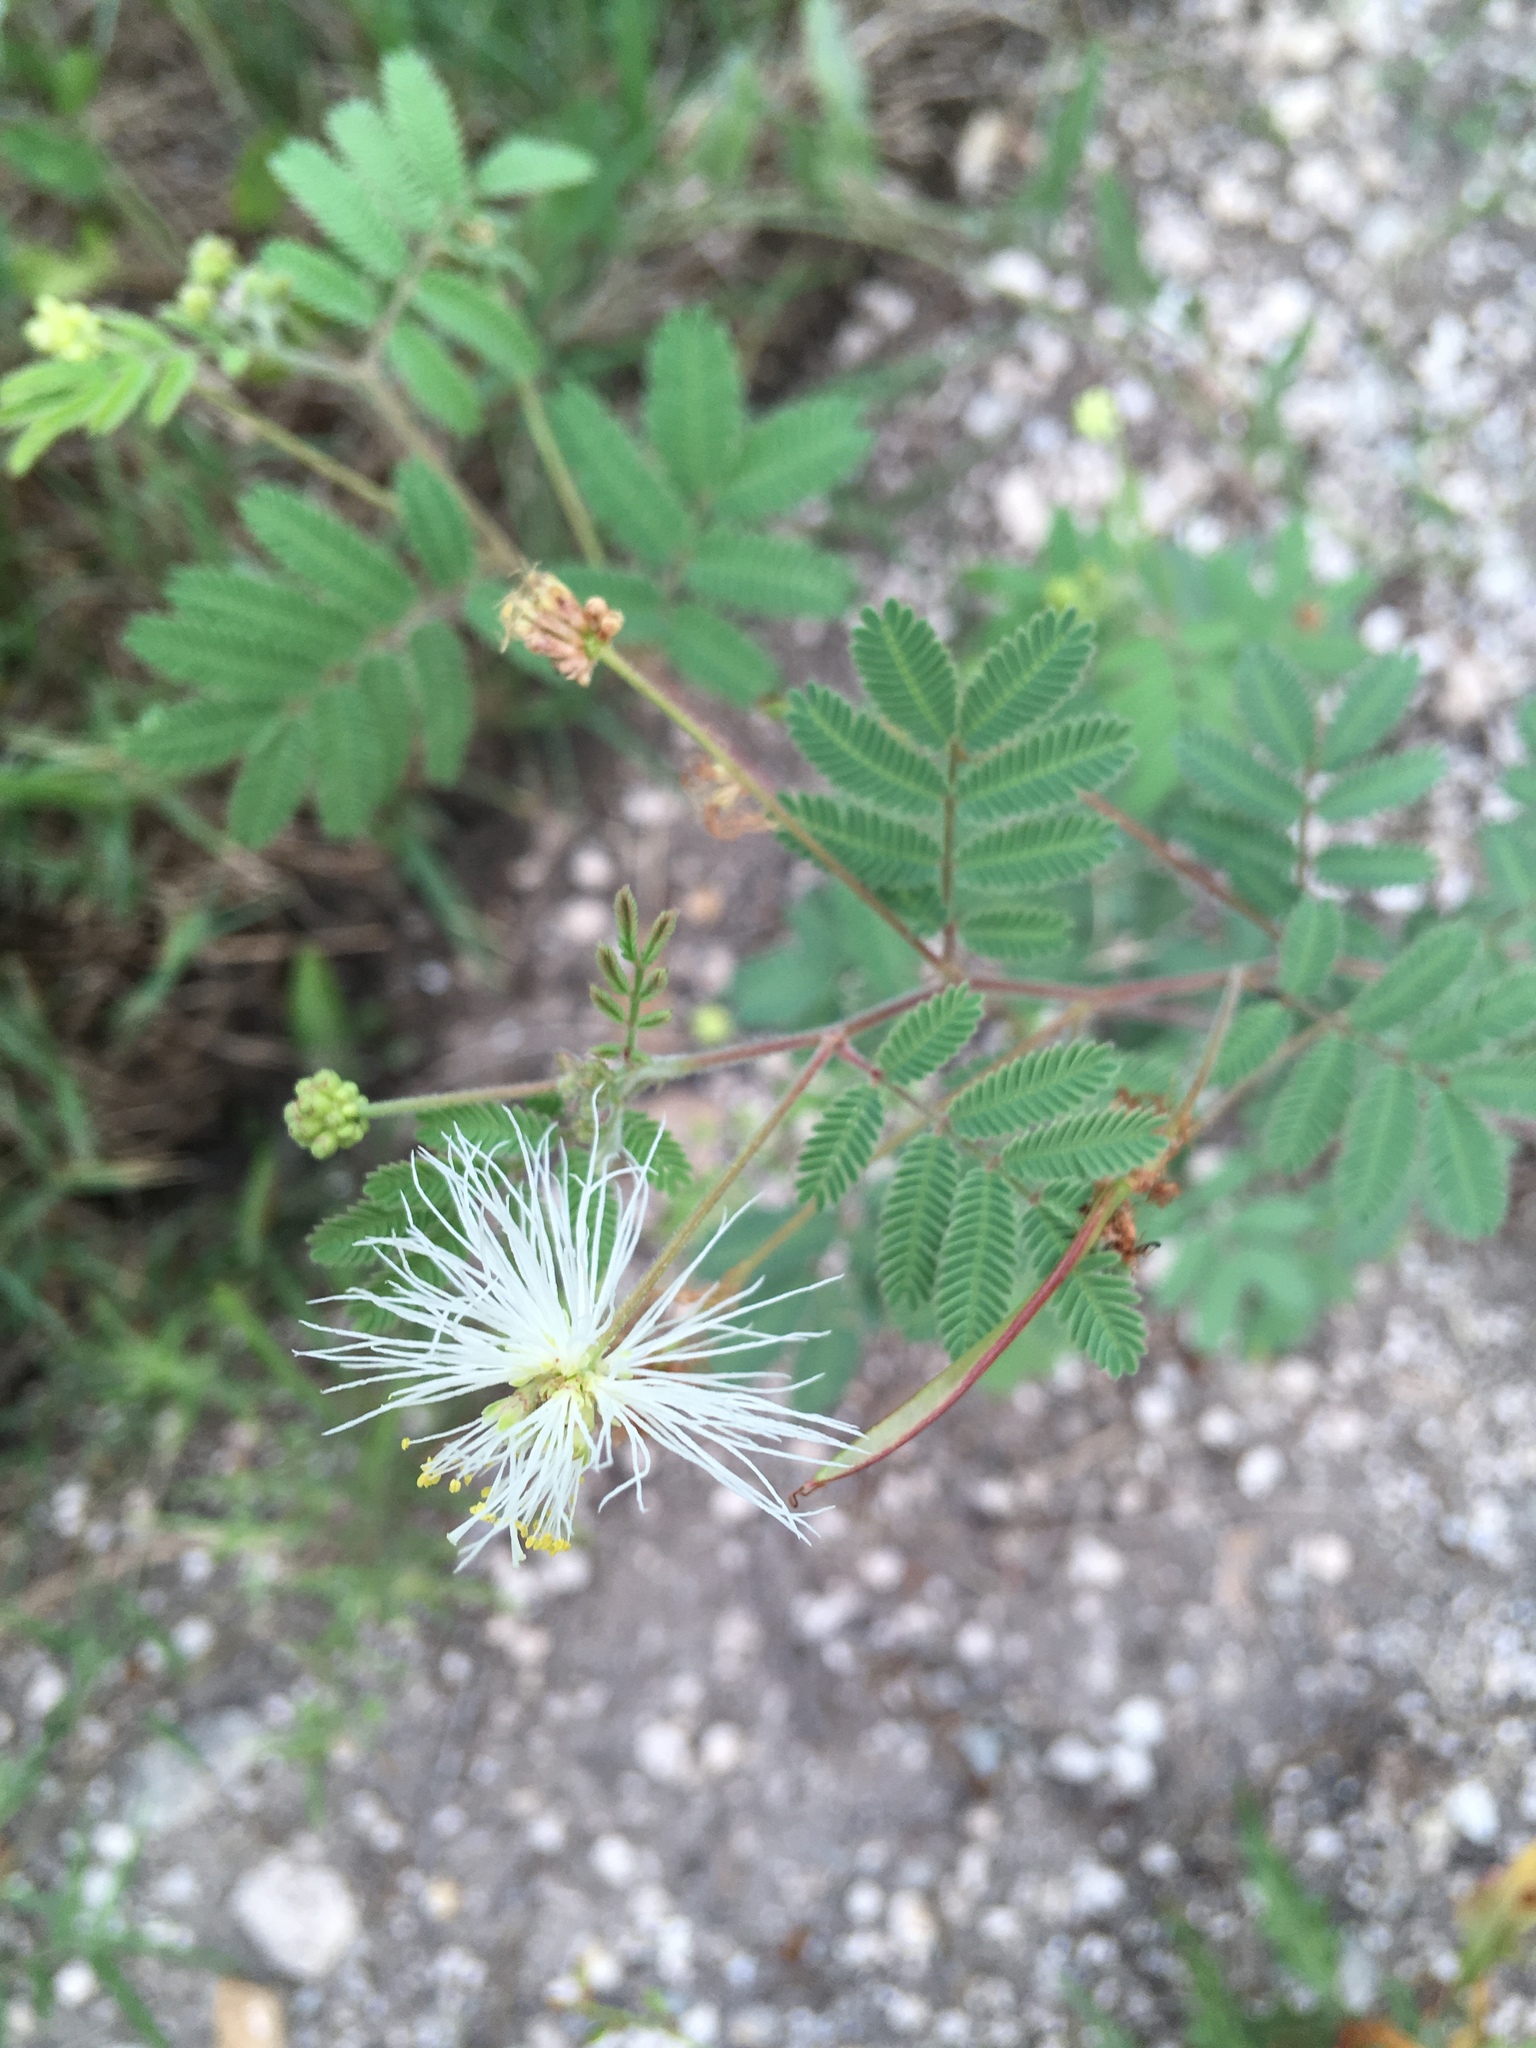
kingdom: Plantae
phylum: Tracheophyta
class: Magnoliopsida
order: Fabales
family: Fabaceae
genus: Acaciella
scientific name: Acaciella angustissima
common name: Prairie acacia
